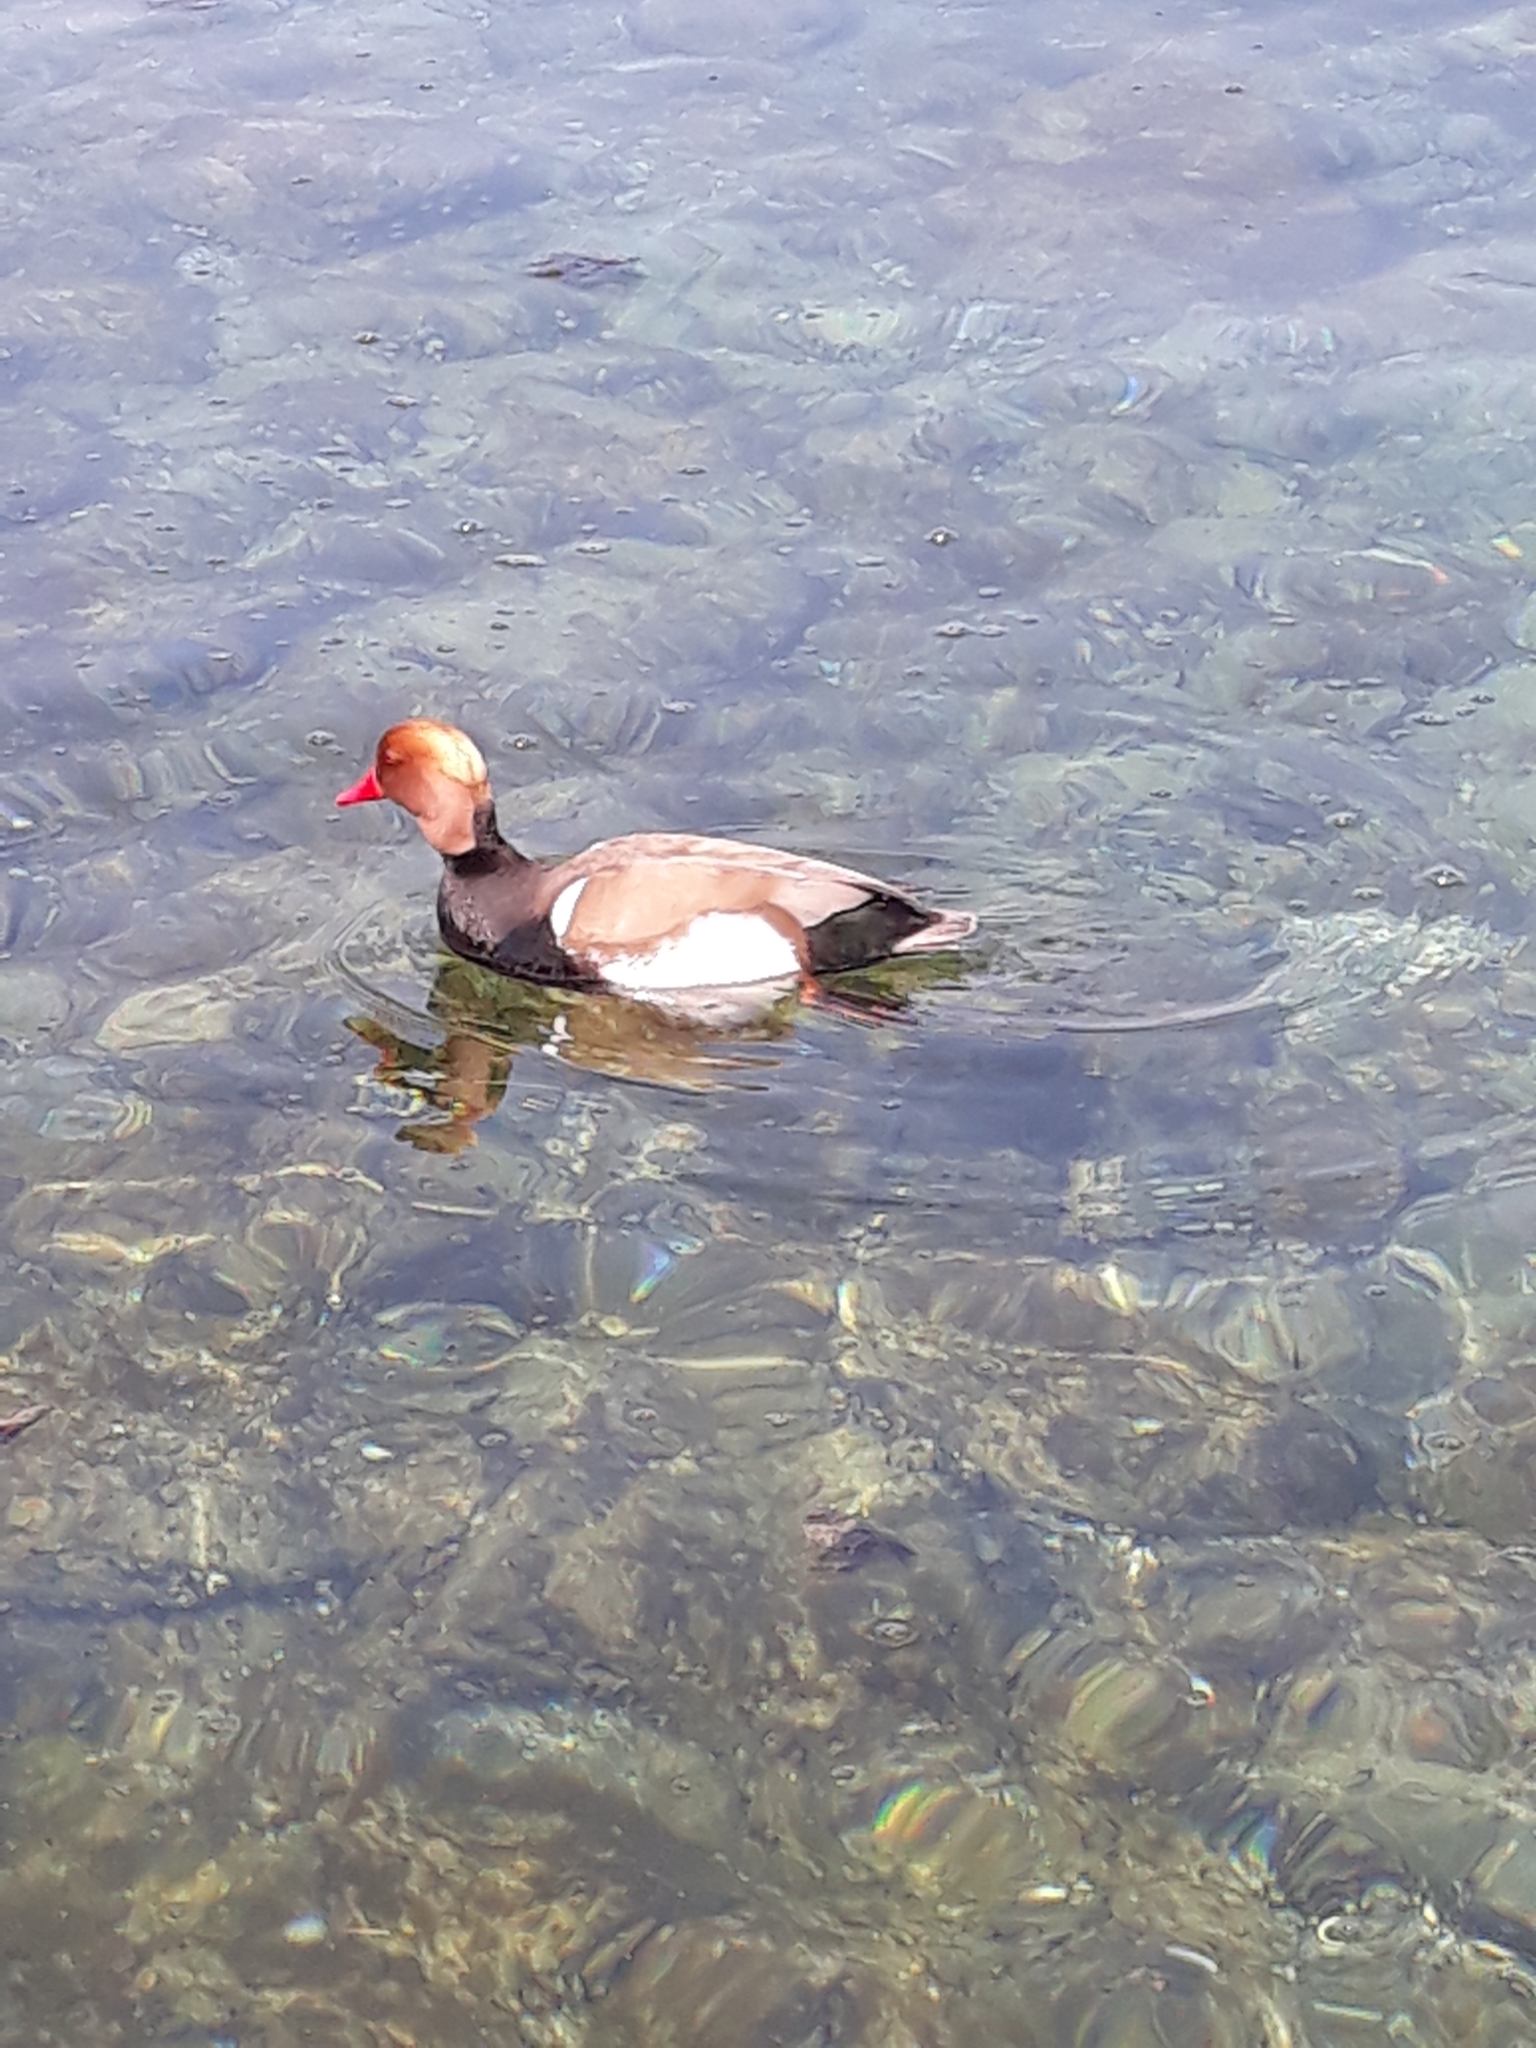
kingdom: Animalia
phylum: Chordata
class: Aves
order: Anseriformes
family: Anatidae
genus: Netta
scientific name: Netta rufina
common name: Red-crested pochard
